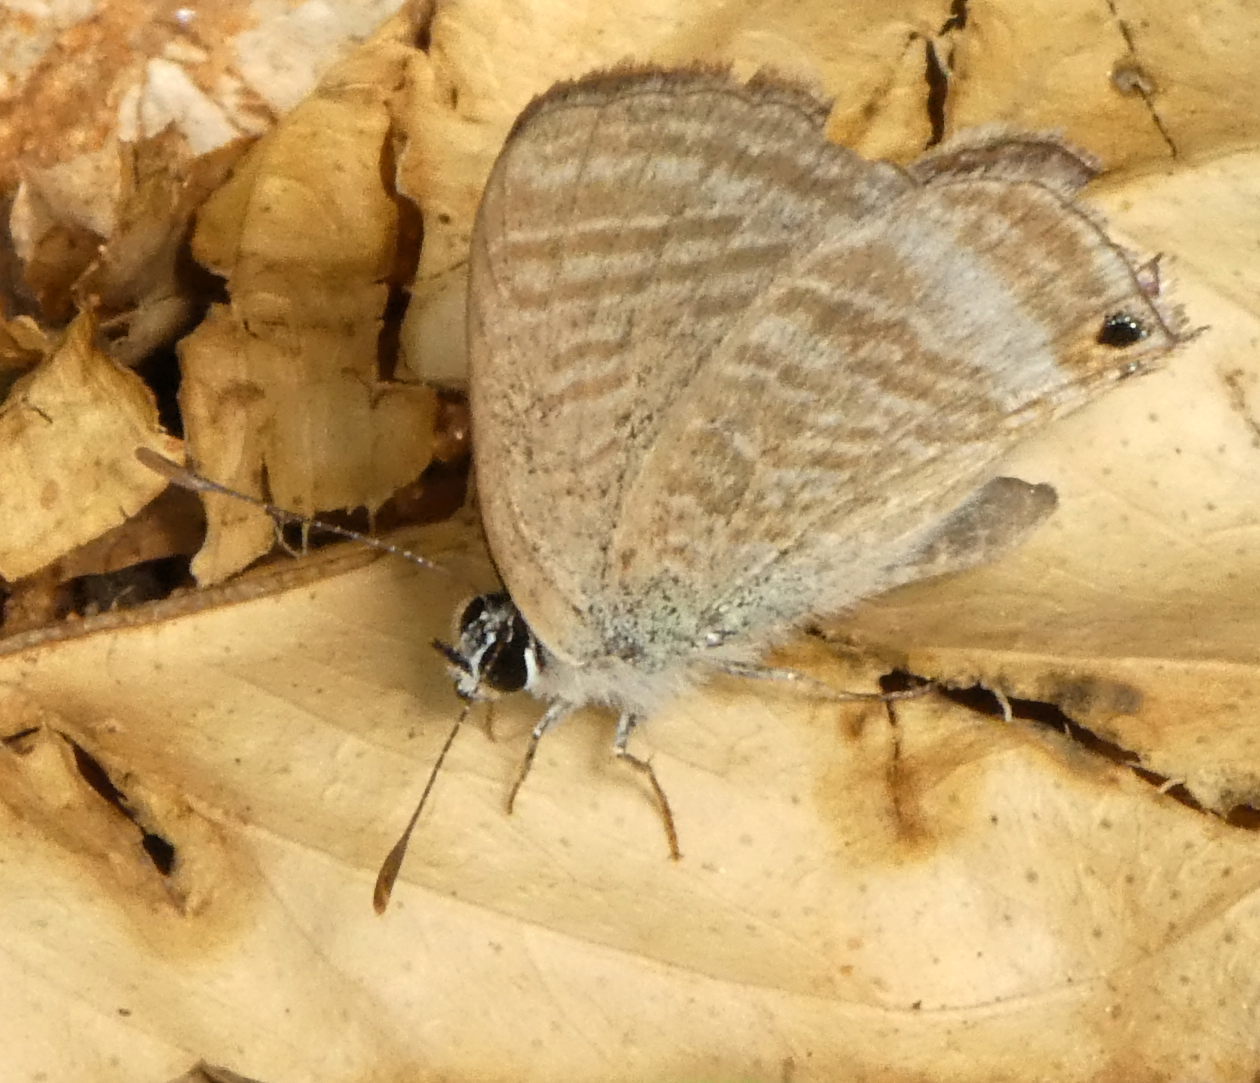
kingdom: Animalia
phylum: Arthropoda
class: Insecta
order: Lepidoptera
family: Lycaenidae
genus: Lampides
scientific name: Lampides boeticus
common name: Long-tailed blue
